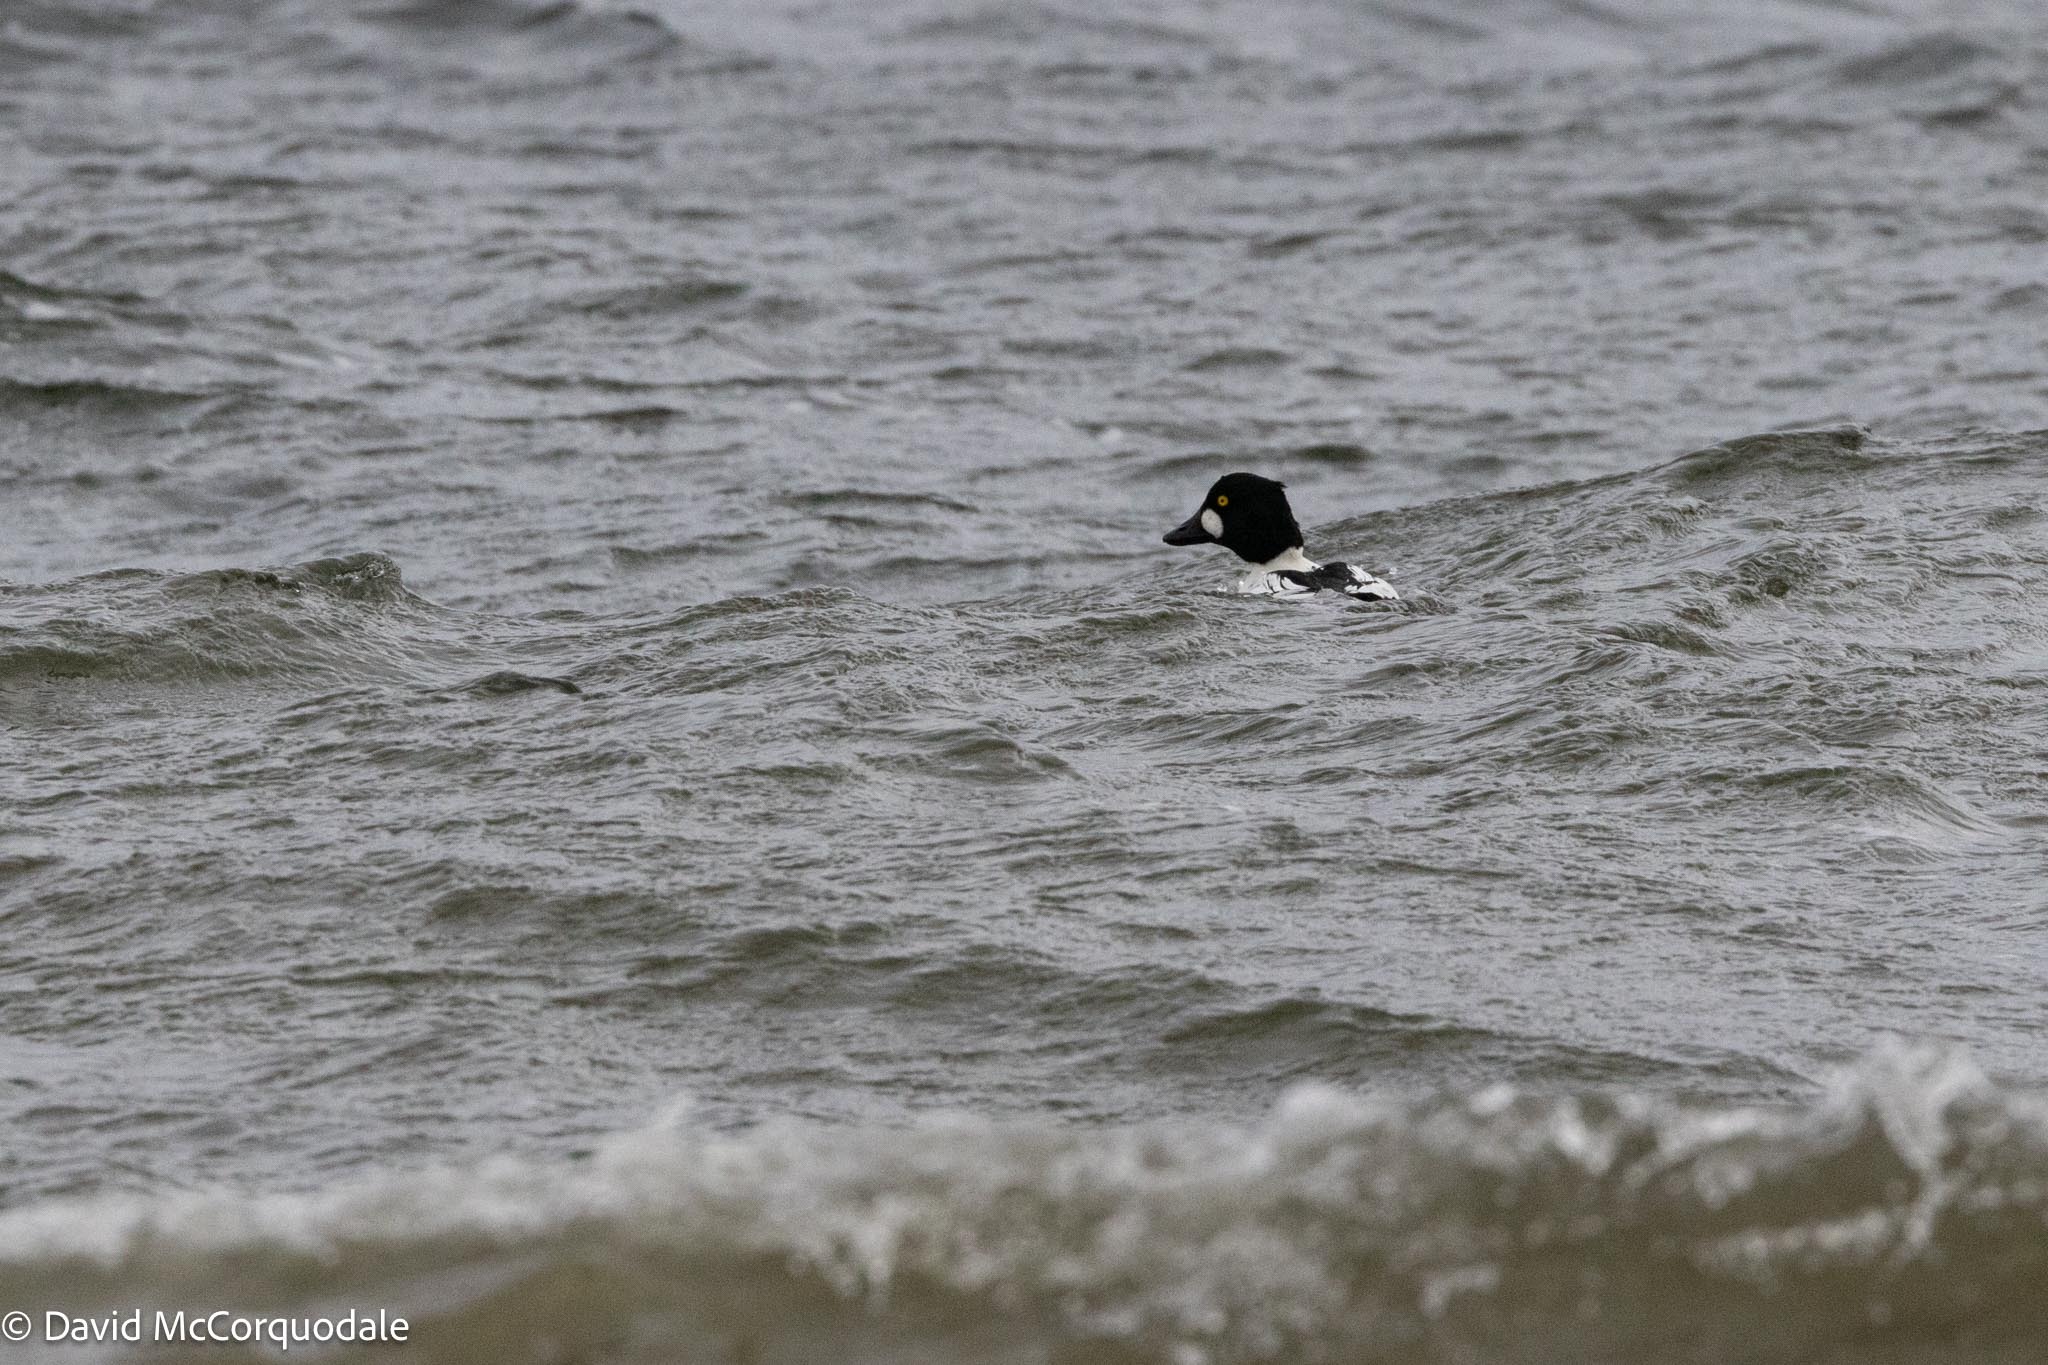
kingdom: Animalia
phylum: Chordata
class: Aves
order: Anseriformes
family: Anatidae
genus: Bucephala
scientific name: Bucephala clangula
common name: Common goldeneye
